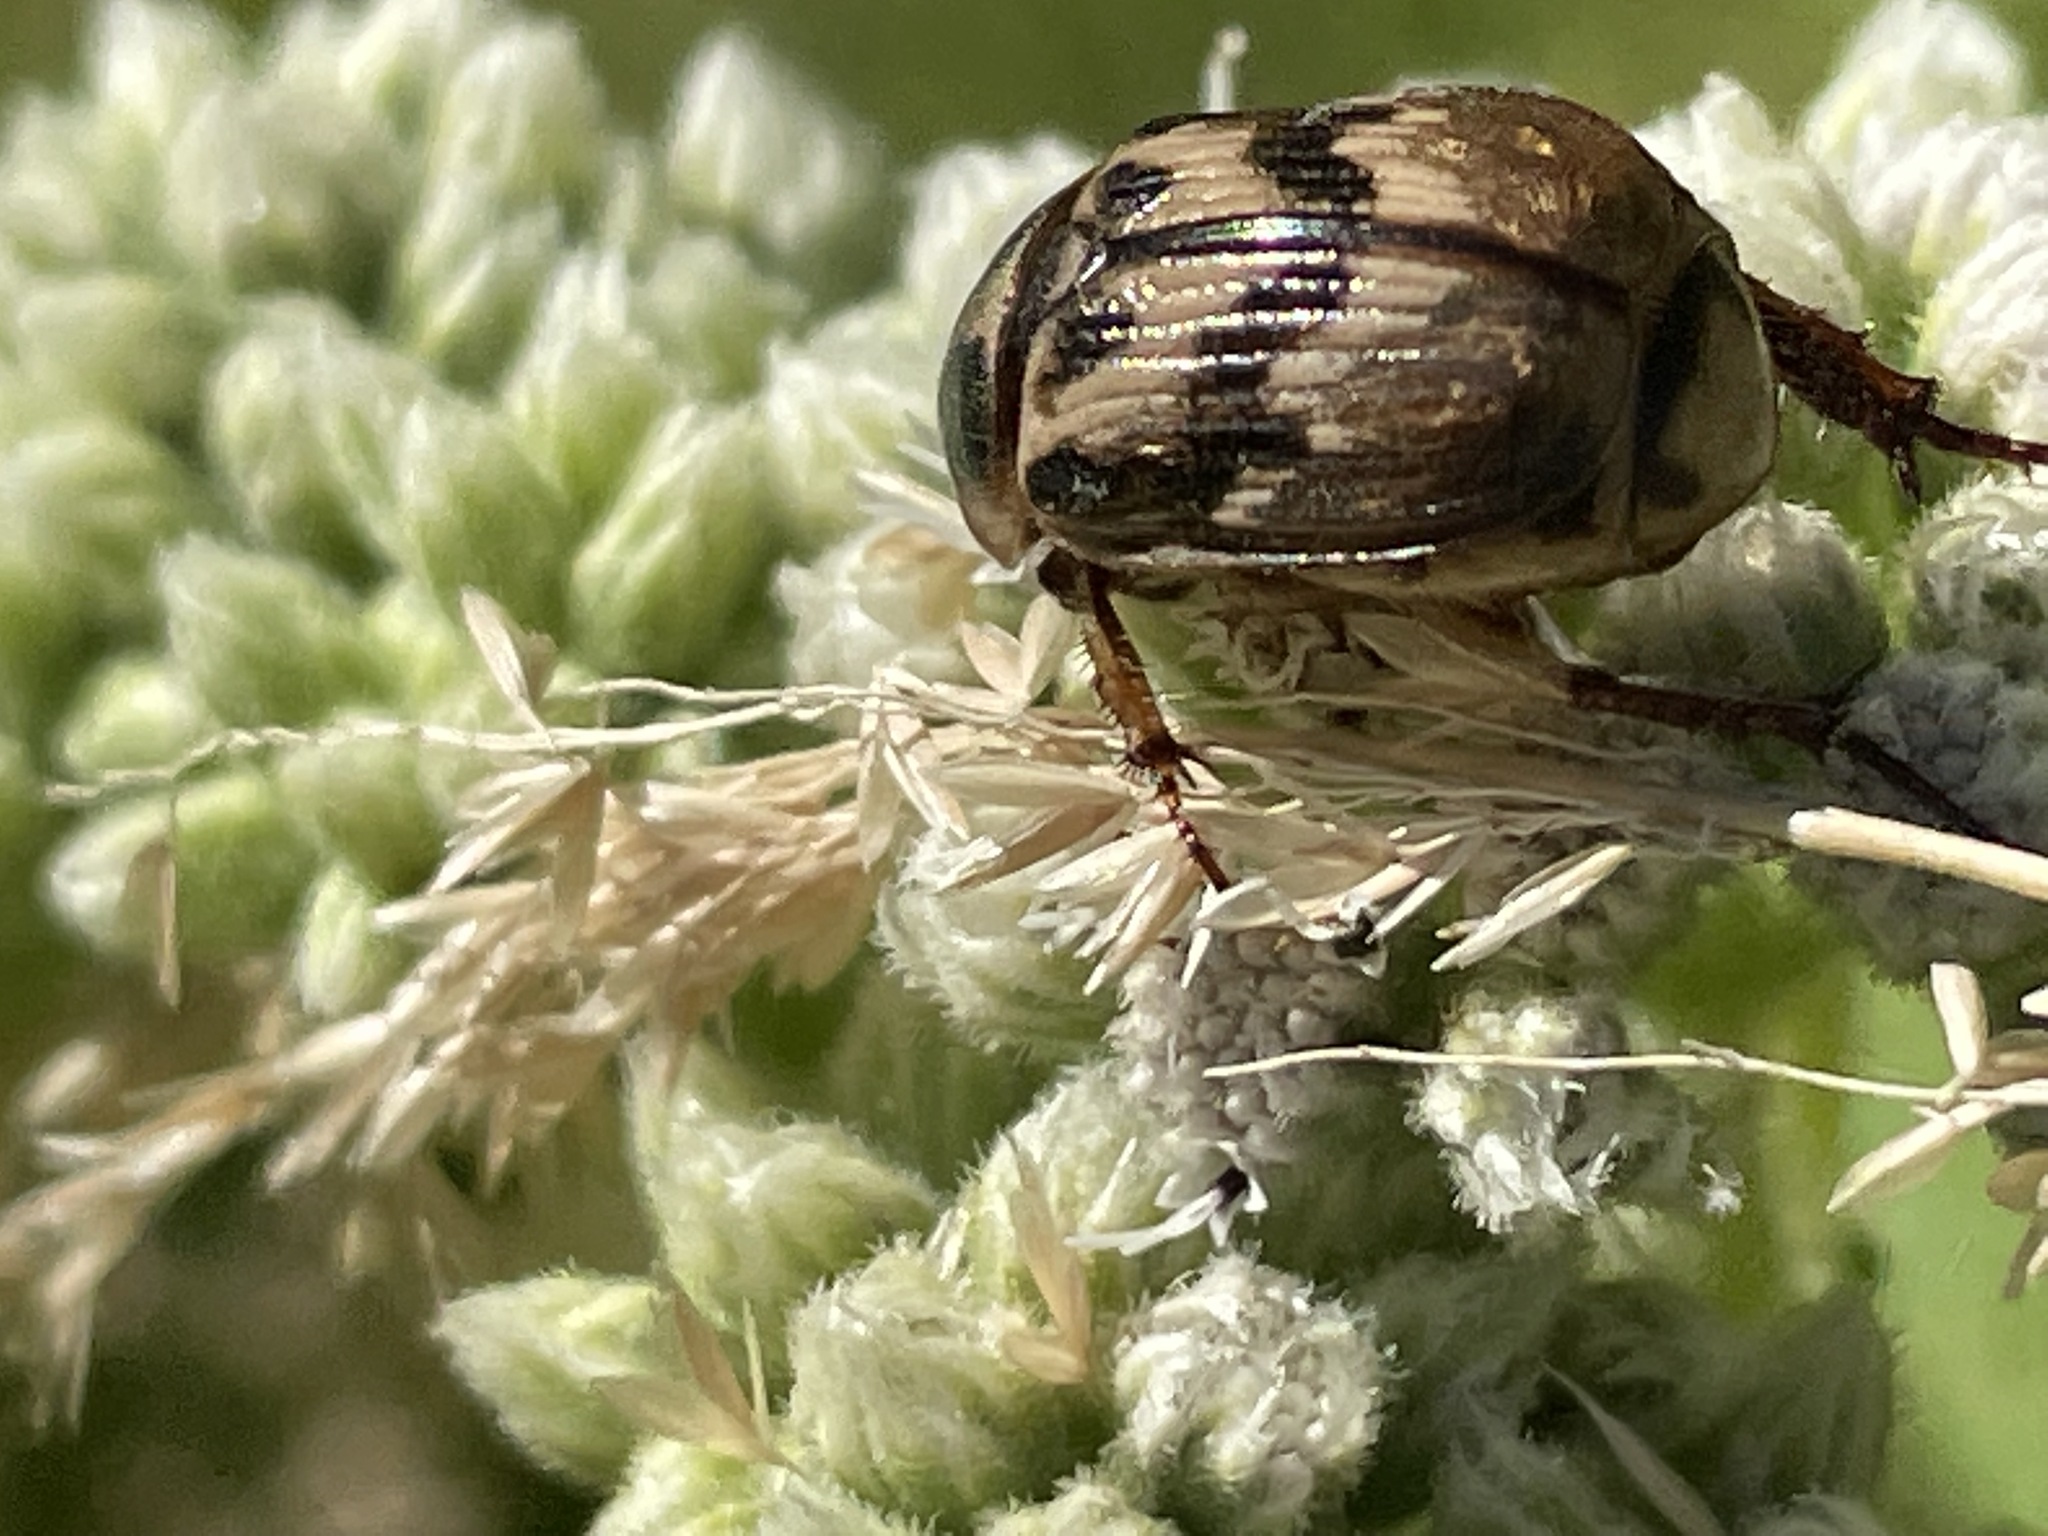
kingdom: Animalia
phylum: Arthropoda
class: Insecta
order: Coleoptera
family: Scarabaeidae
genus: Exomala
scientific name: Exomala orientalis
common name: Oriental beetle
